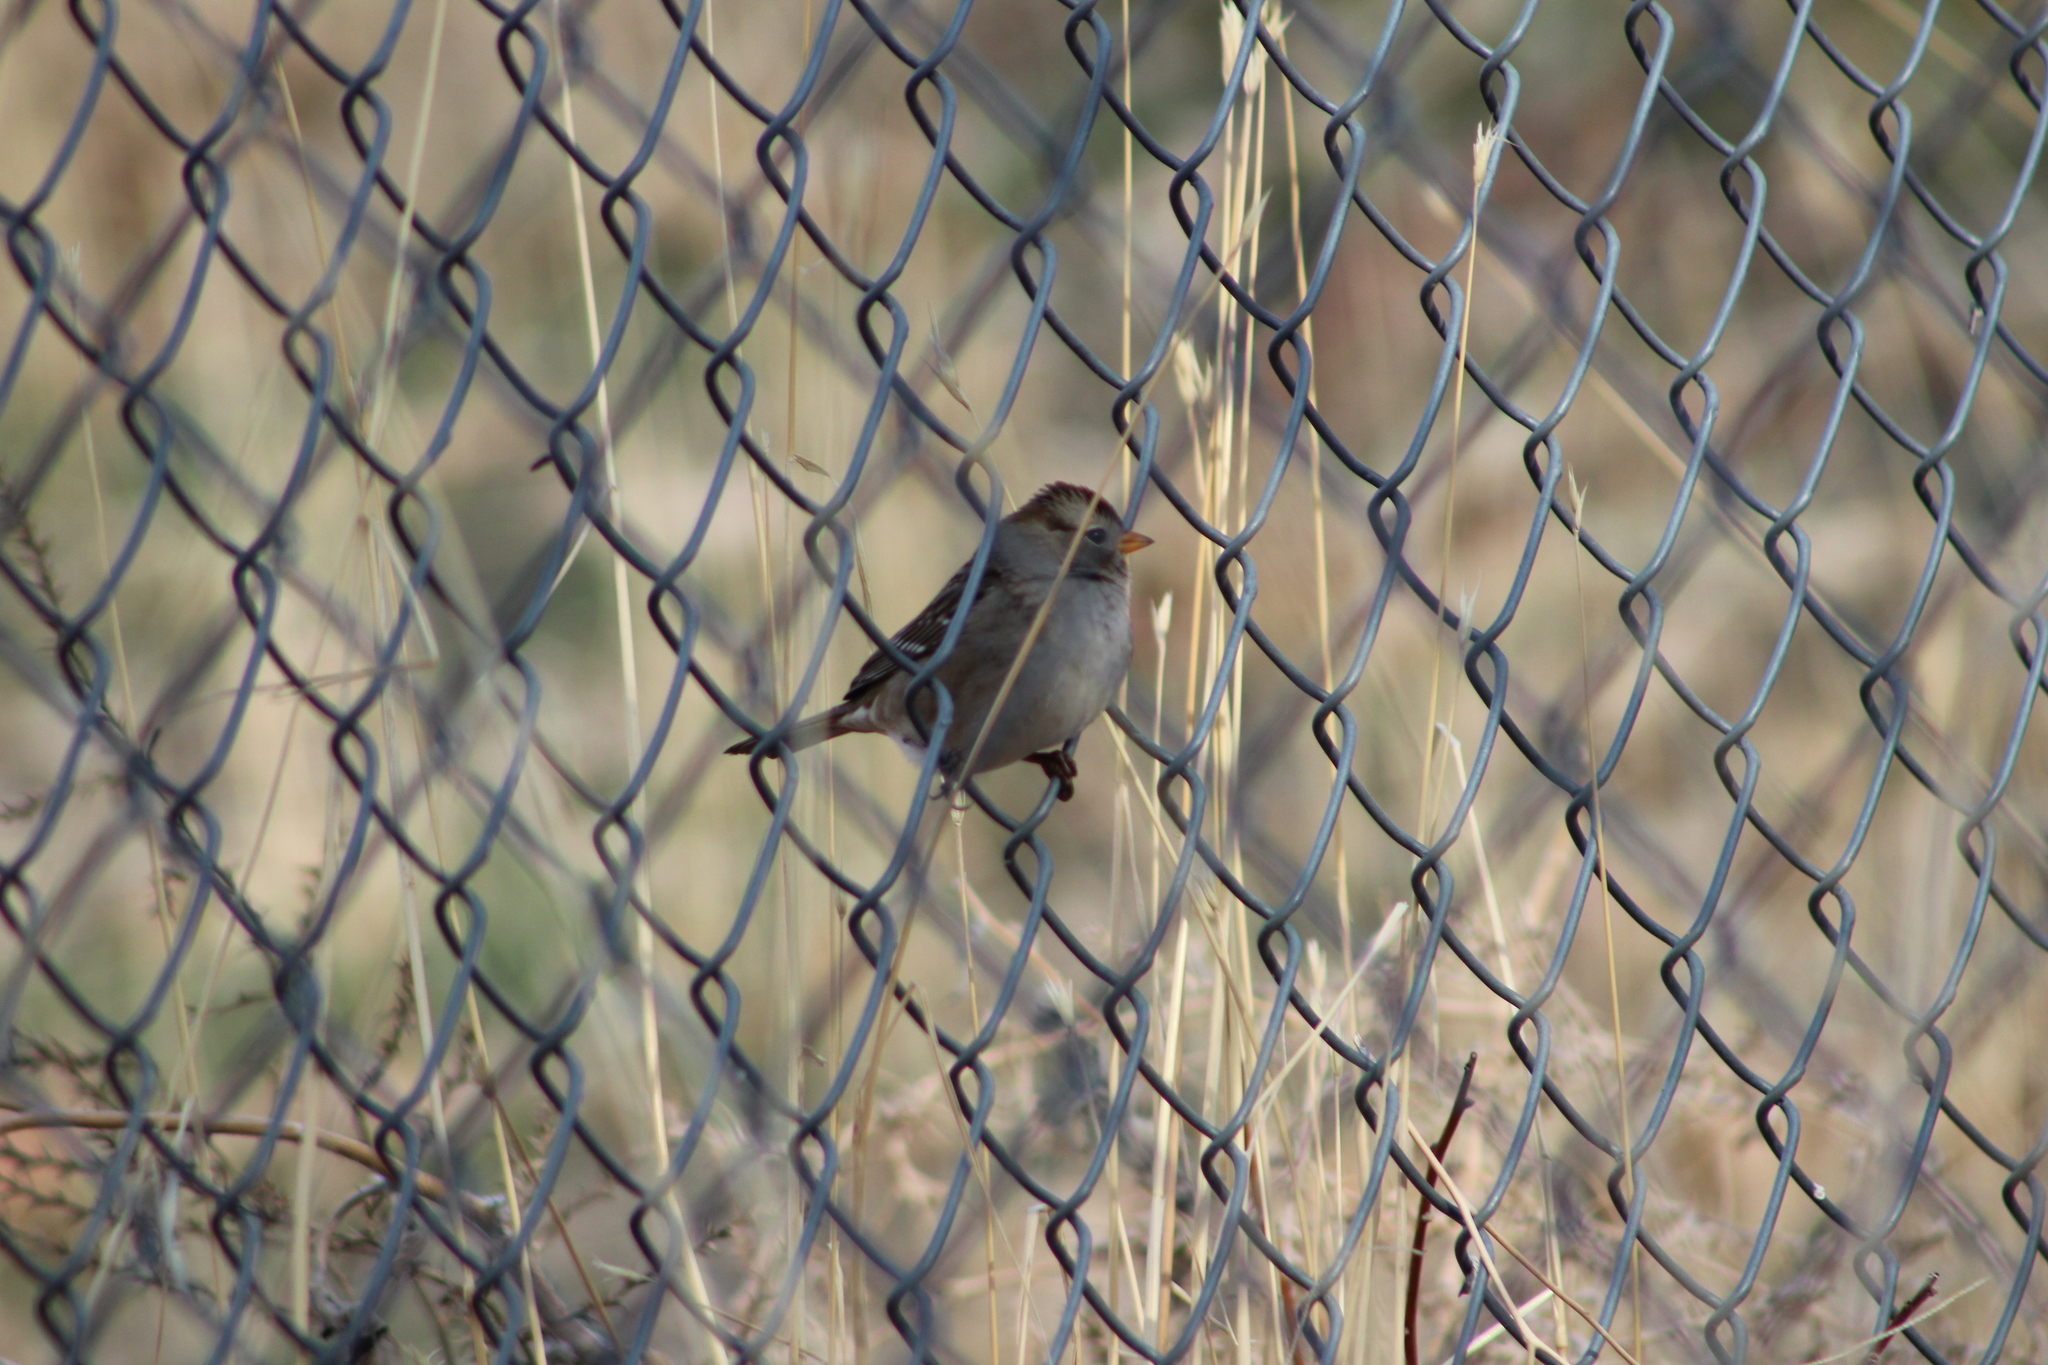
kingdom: Animalia
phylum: Chordata
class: Aves
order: Passeriformes
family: Passerellidae
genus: Zonotrichia
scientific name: Zonotrichia leucophrys
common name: White-crowned sparrow
